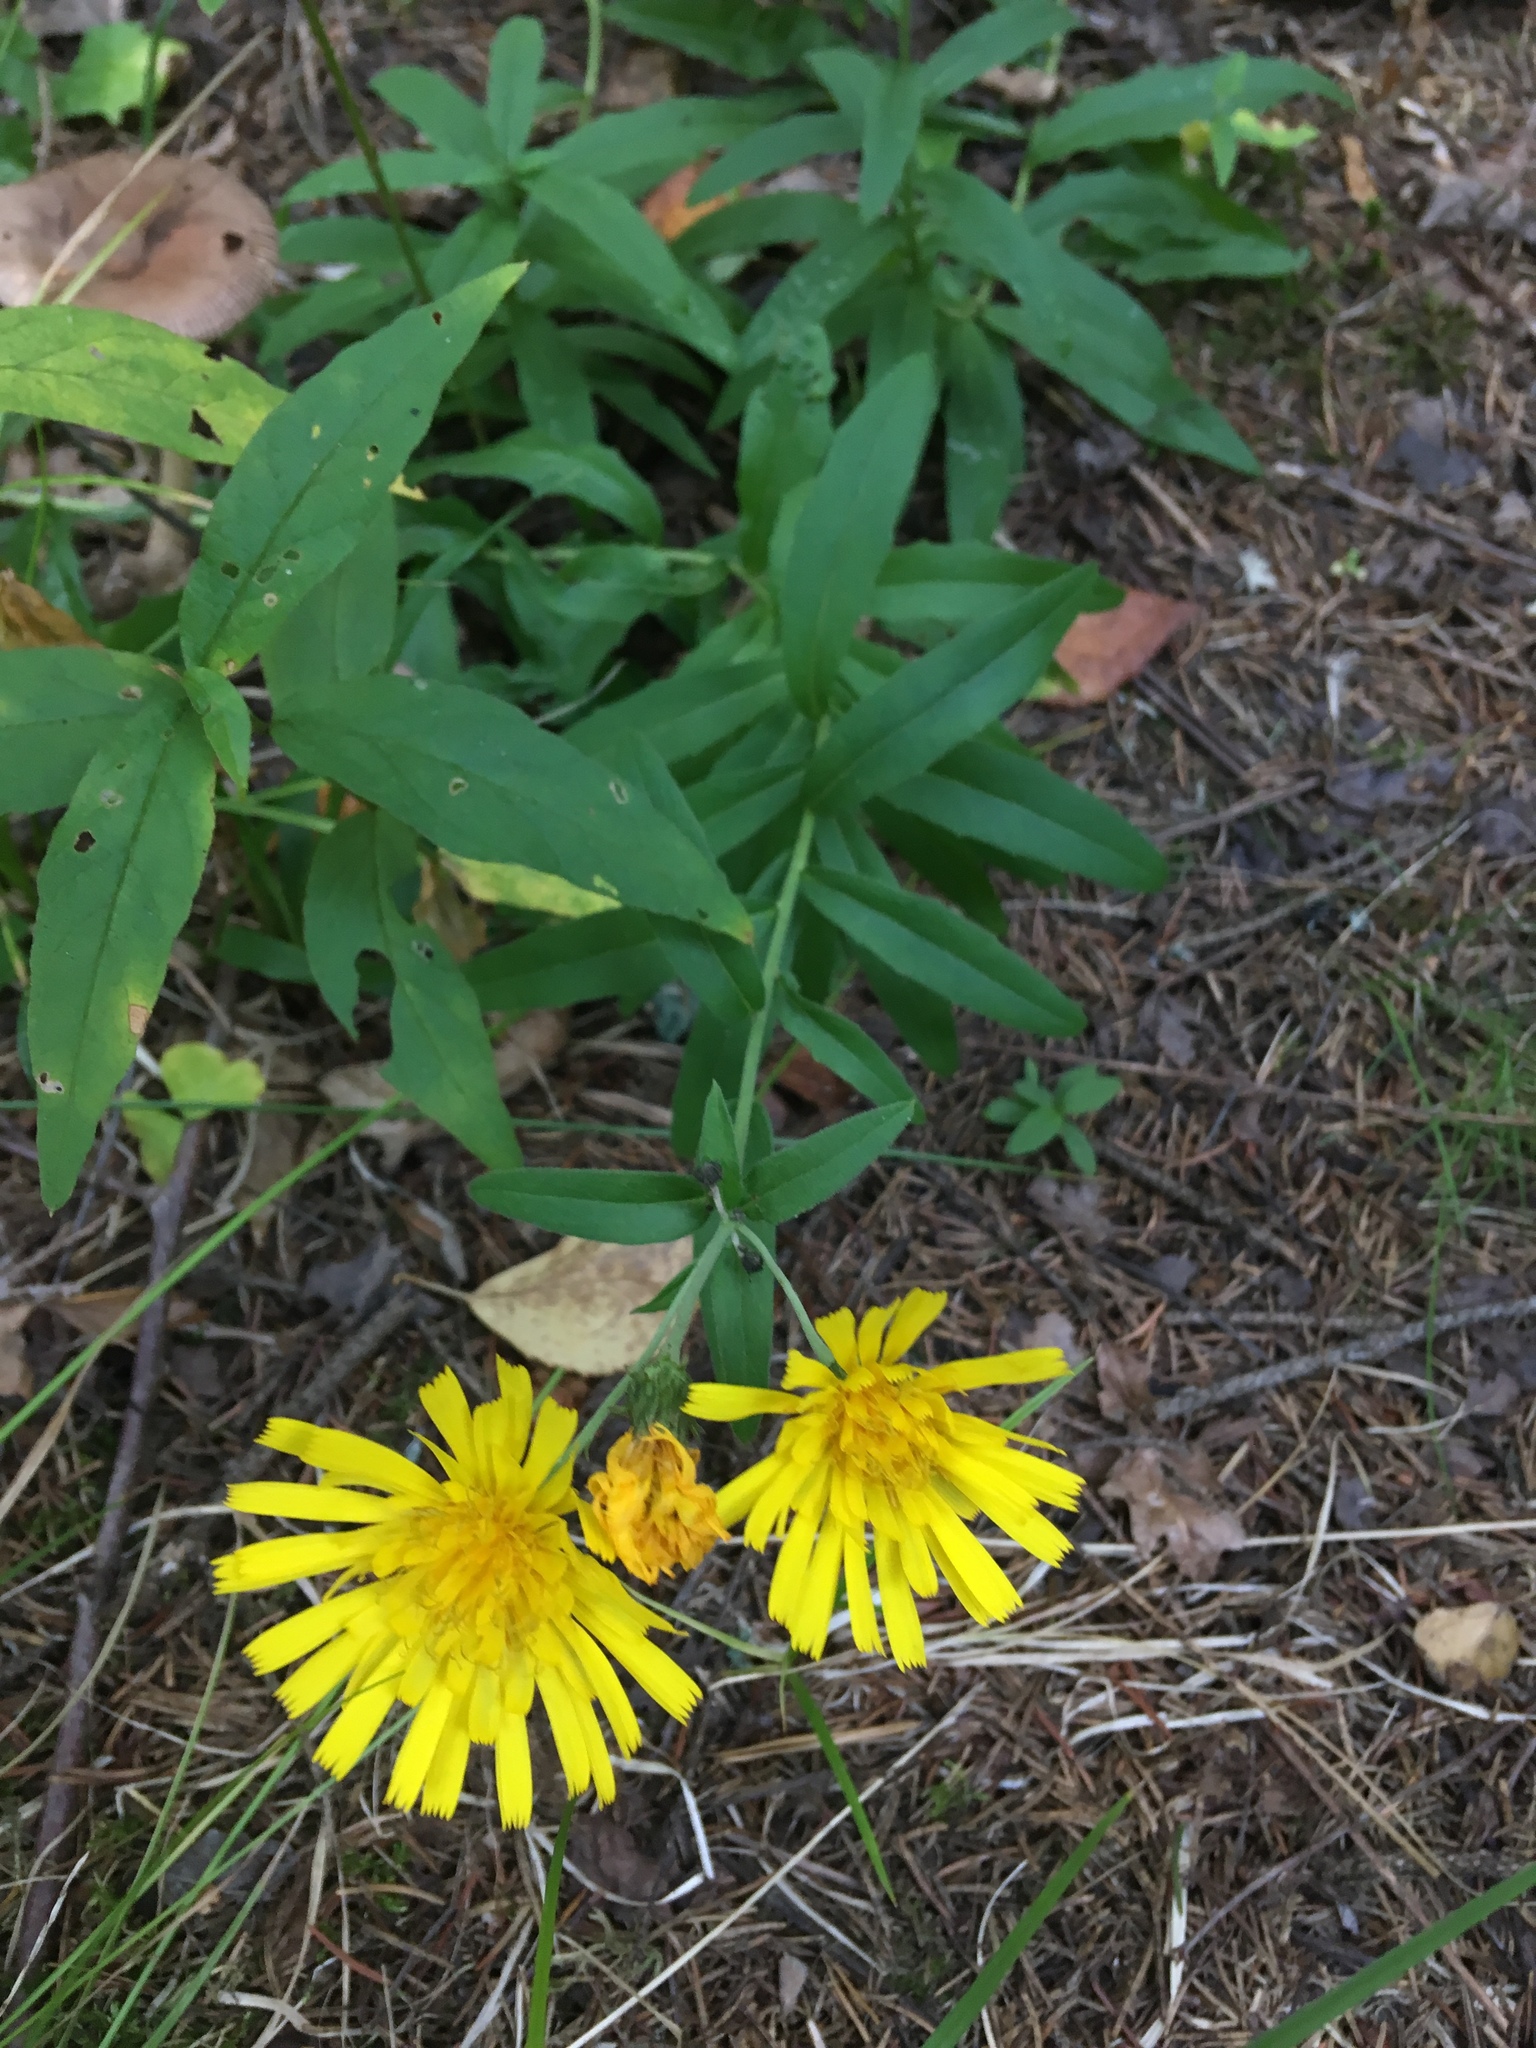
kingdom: Plantae
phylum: Tracheophyta
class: Magnoliopsida
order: Asterales
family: Asteraceae
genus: Hieracium
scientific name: Hieracium umbellatum
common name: Northern hawkweed
